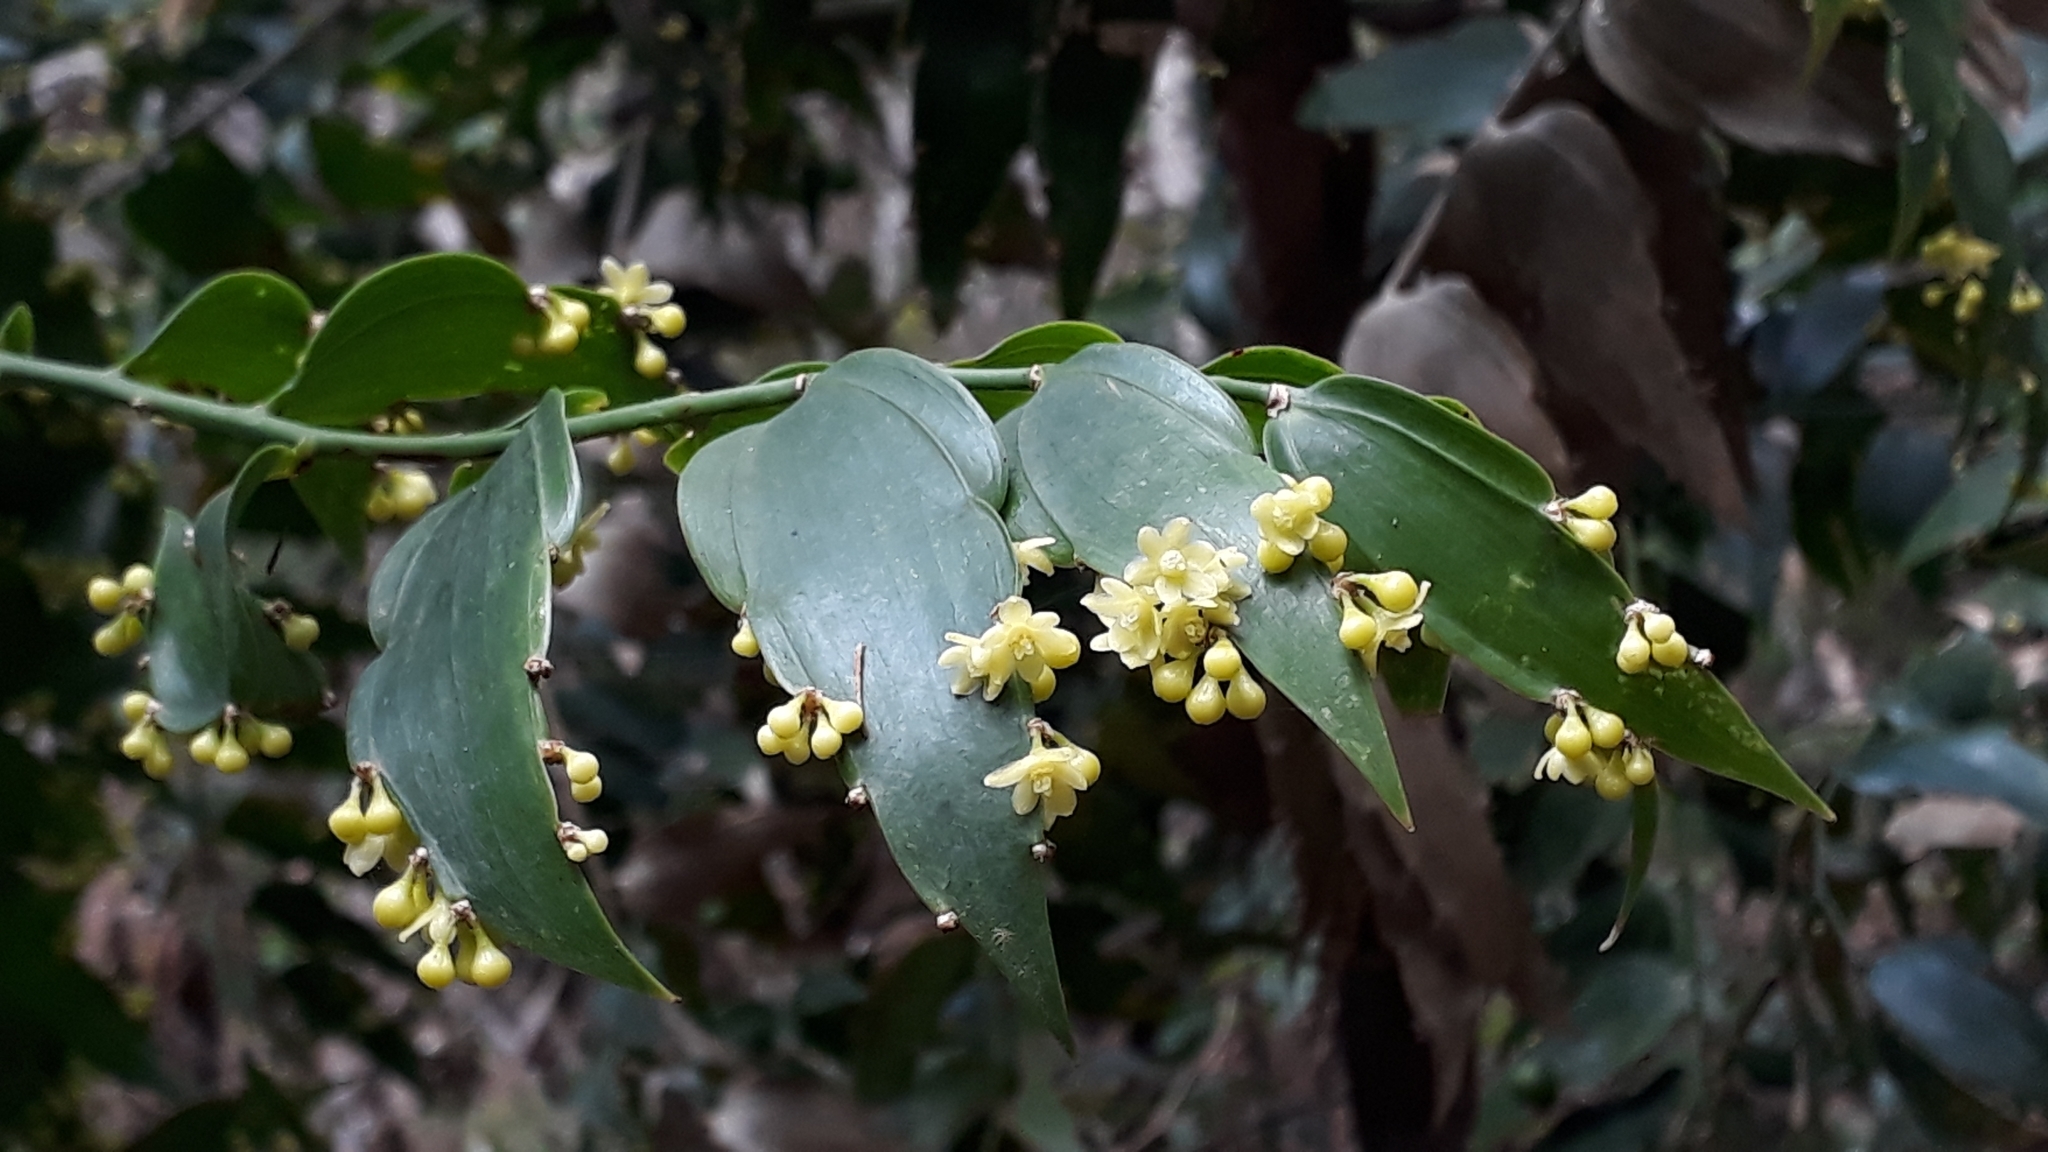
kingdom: Plantae
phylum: Tracheophyta
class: Liliopsida
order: Asparagales
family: Asparagaceae
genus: Semele
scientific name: Semele androgyna
